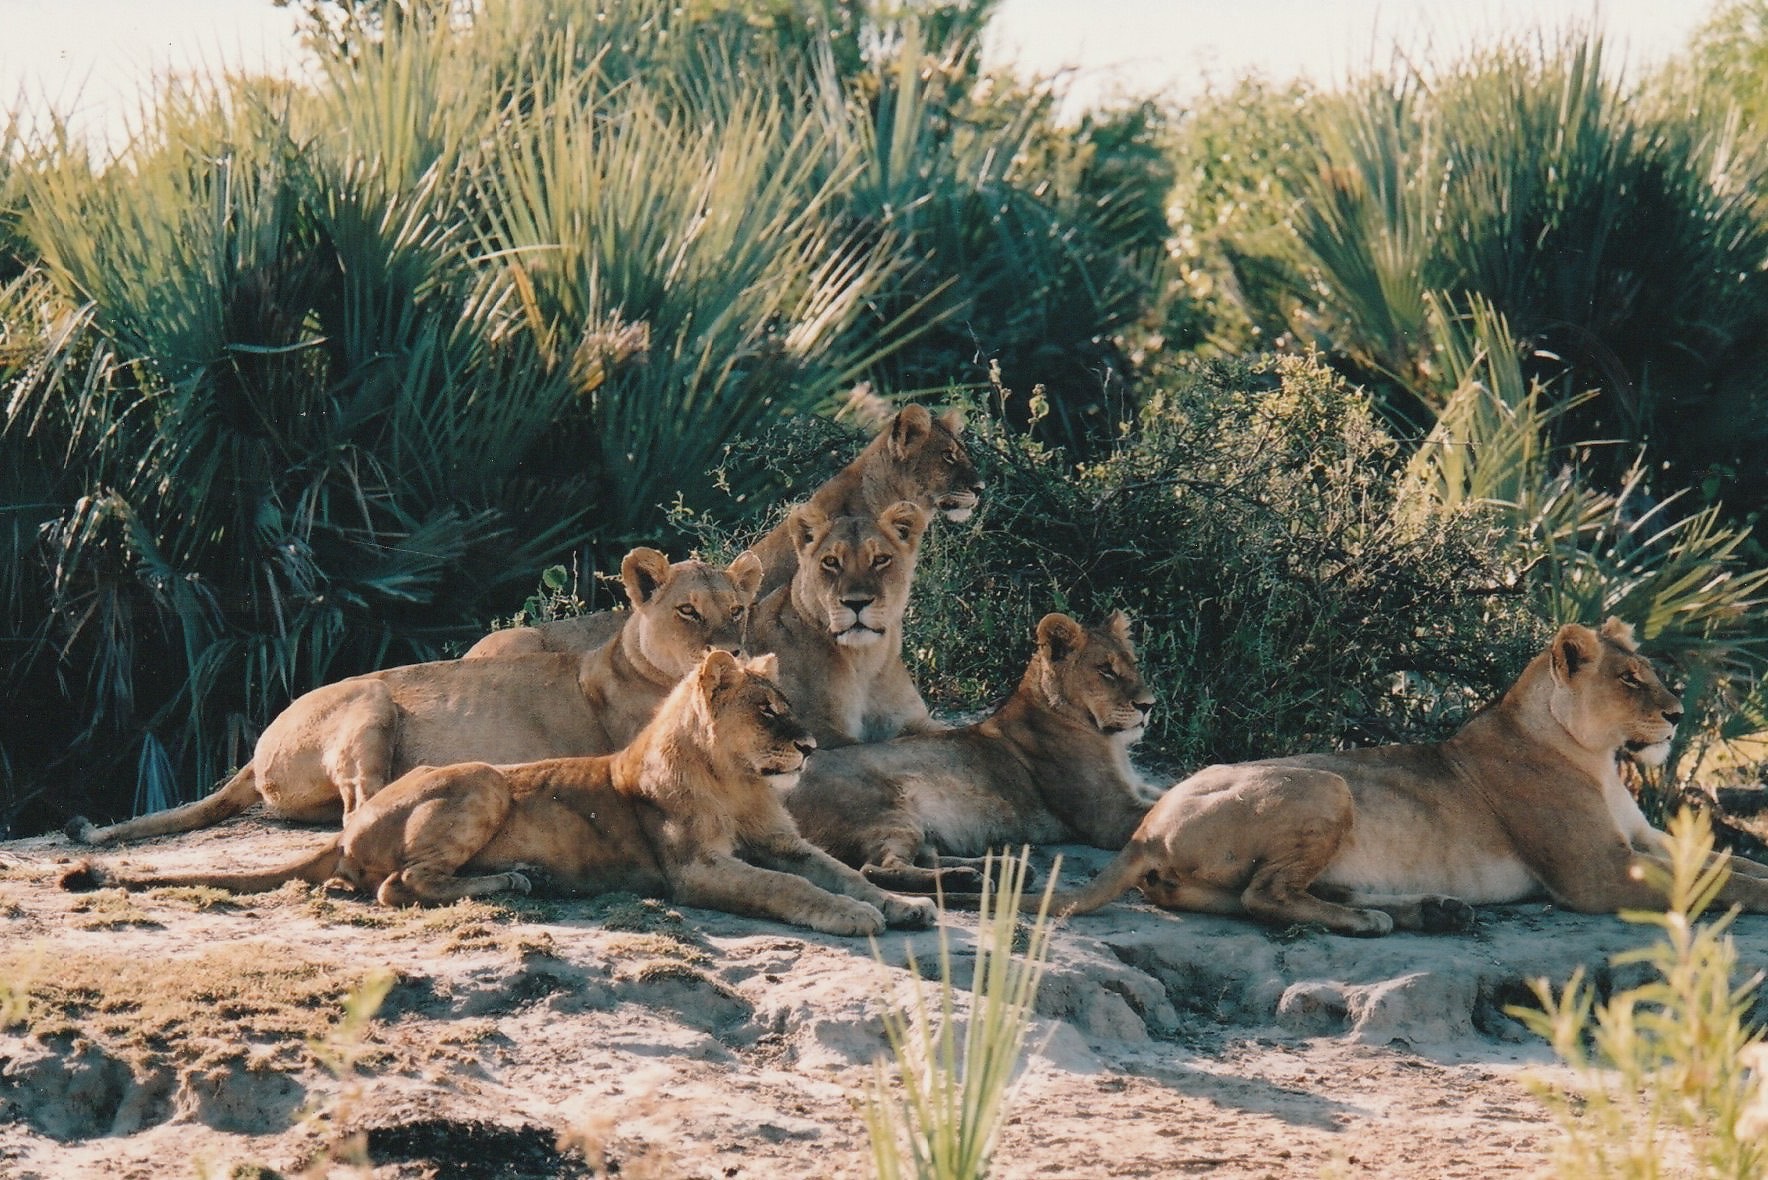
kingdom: Animalia
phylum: Chordata
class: Mammalia
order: Carnivora
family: Felidae
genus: Panthera
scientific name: Panthera leo
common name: Lion
